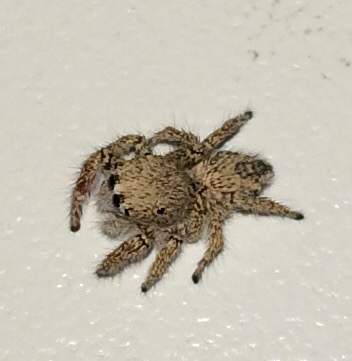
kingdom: Animalia
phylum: Arthropoda
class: Arachnida
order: Araneae
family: Salticidae
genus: Habronattus
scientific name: Habronattus hirsutus
